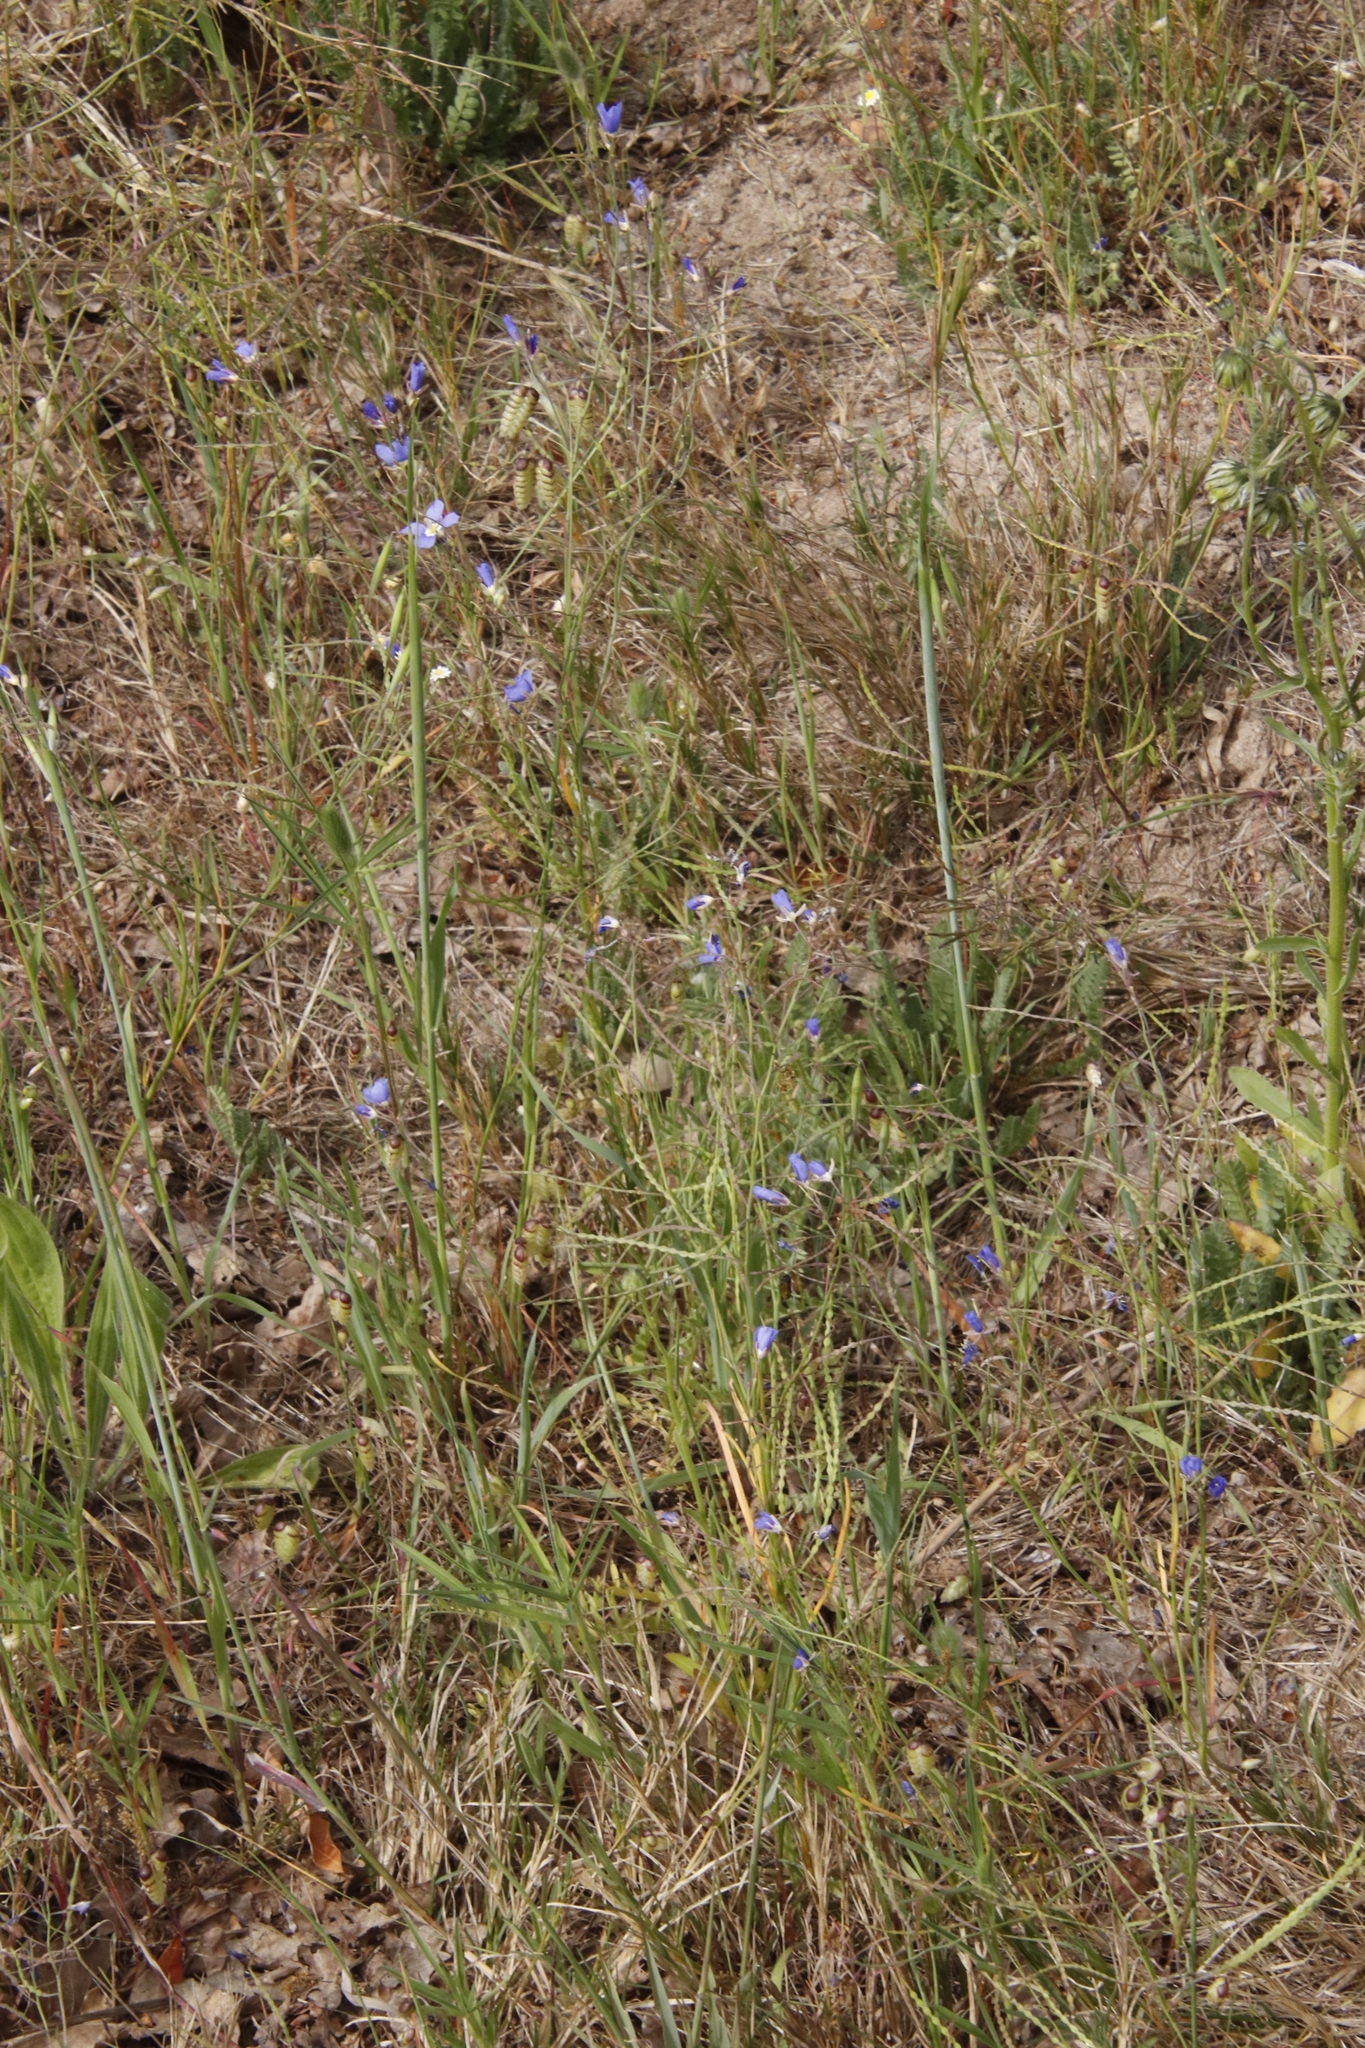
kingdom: Plantae
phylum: Tracheophyta
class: Magnoliopsida
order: Brassicales
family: Brassicaceae
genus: Heliophila
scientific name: Heliophila coronopifolia
